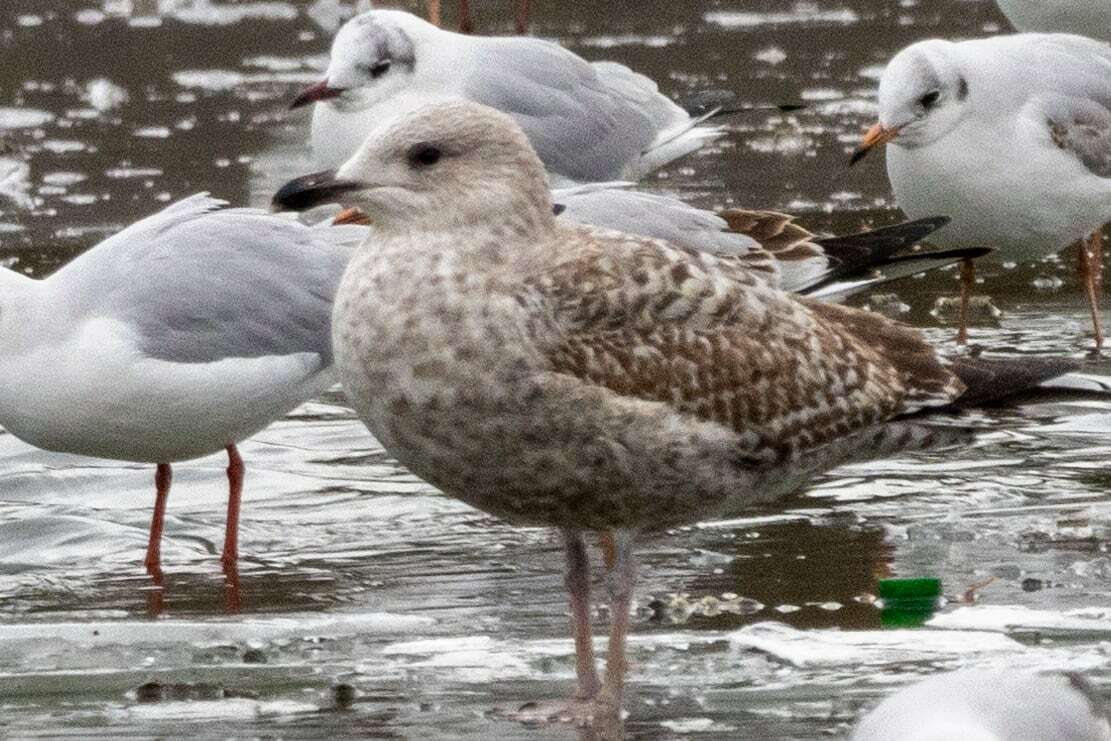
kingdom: Animalia
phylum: Chordata
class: Aves
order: Charadriiformes
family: Laridae
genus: Larus
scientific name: Larus michahellis
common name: Yellow-legged gull
